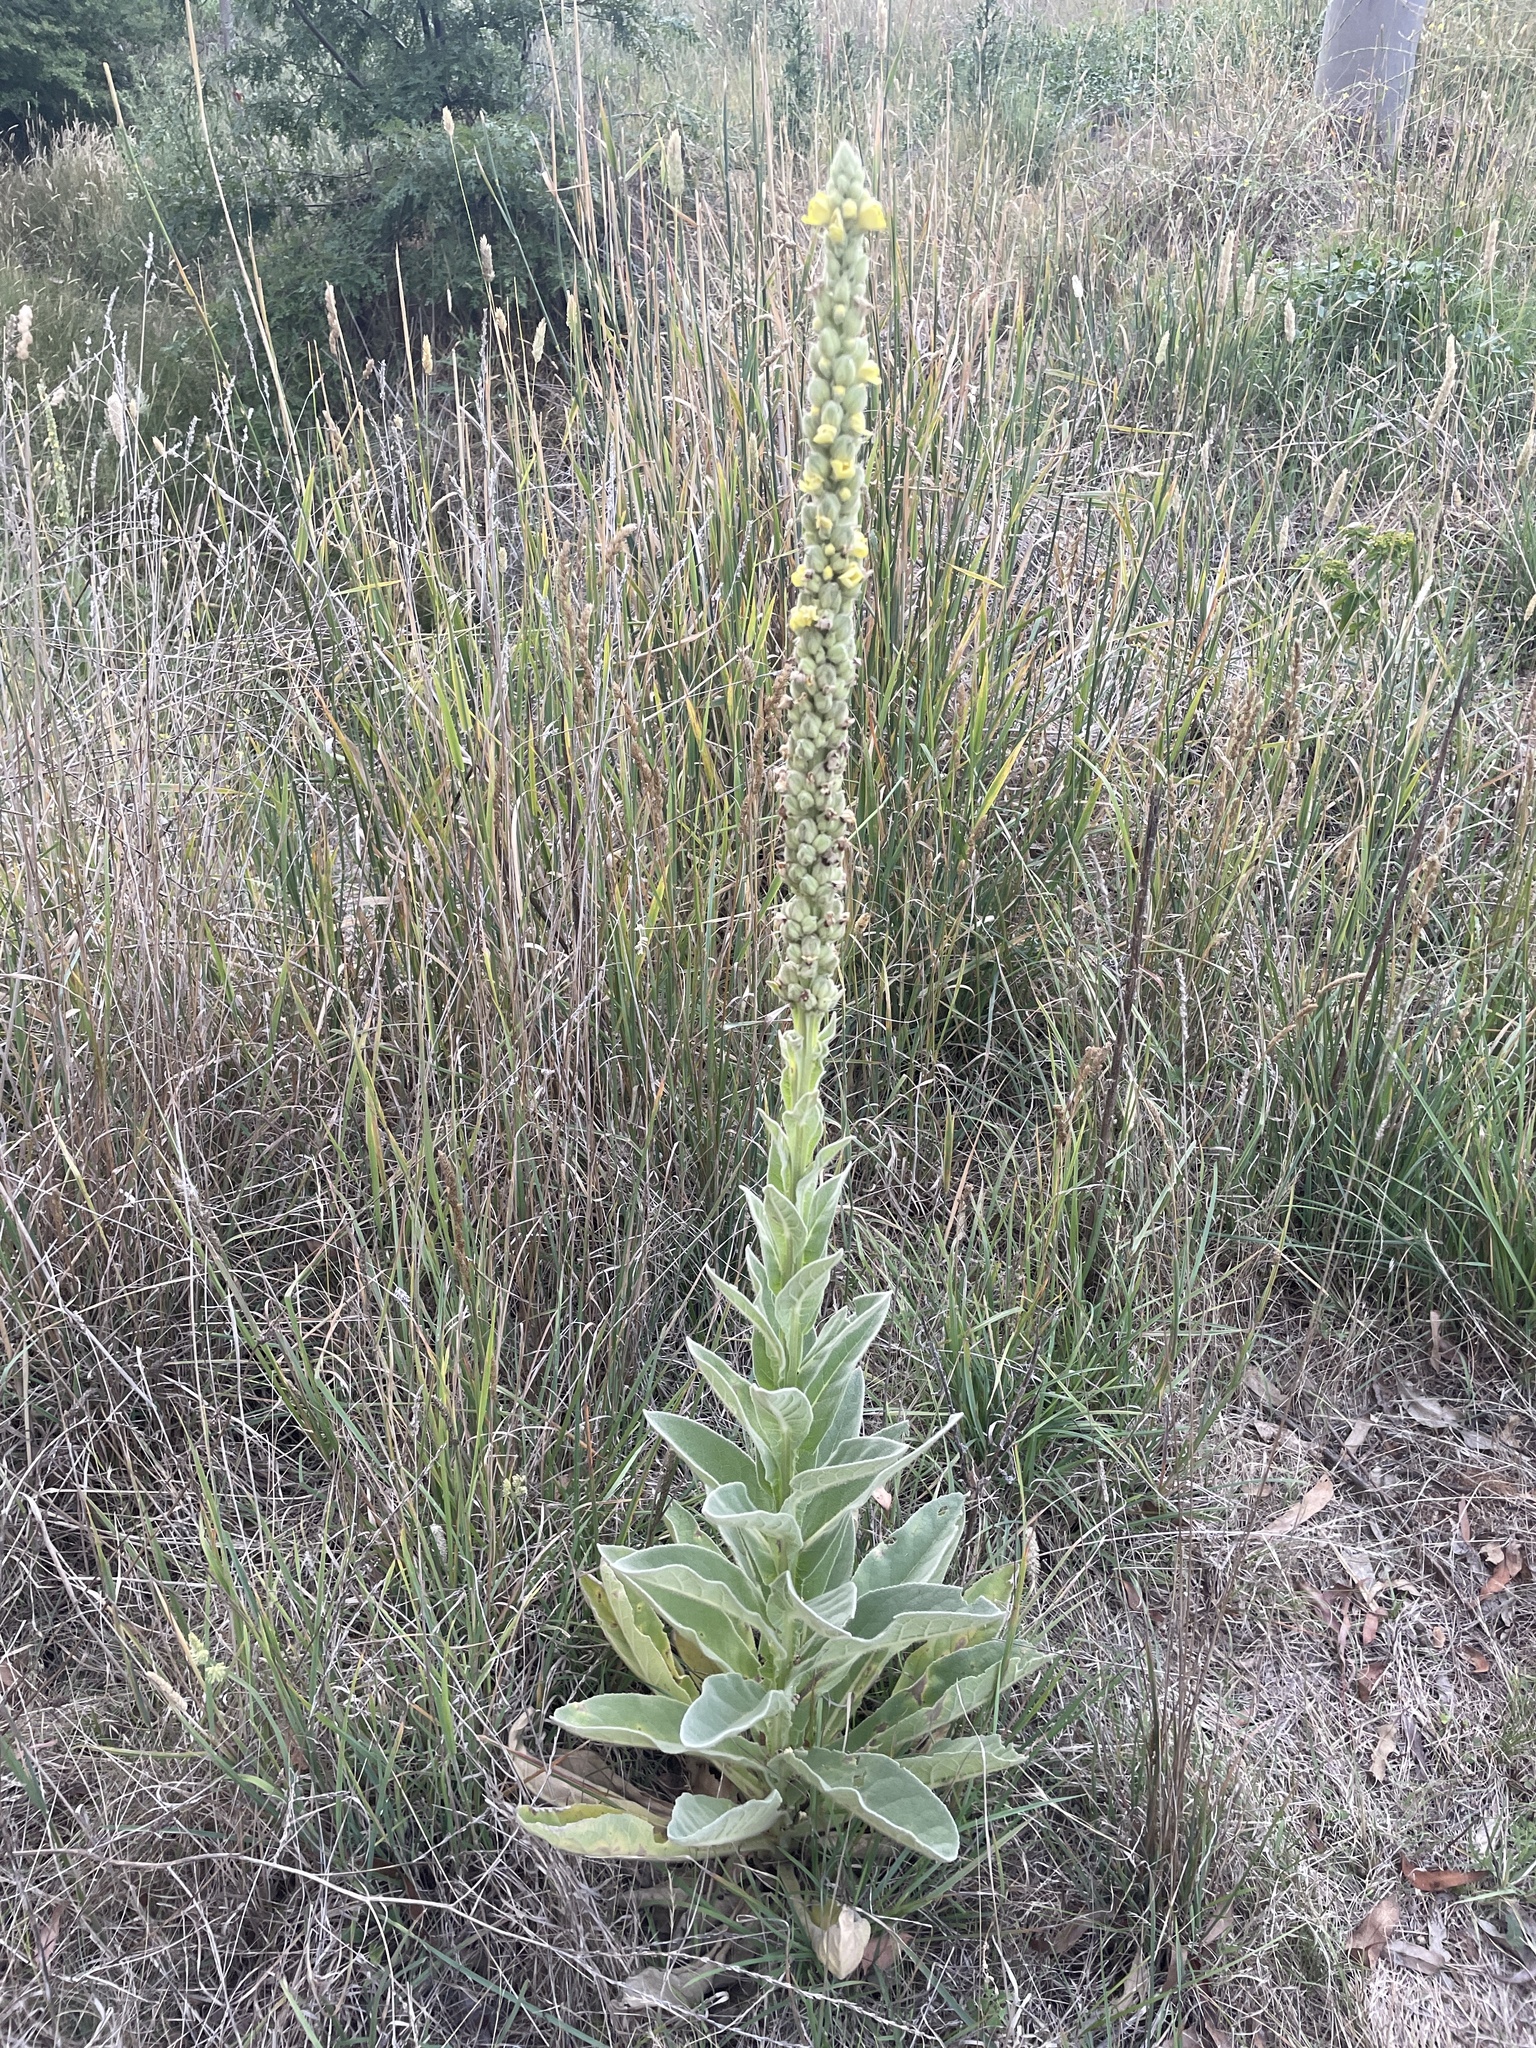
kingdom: Plantae
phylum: Tracheophyta
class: Magnoliopsida
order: Lamiales
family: Scrophulariaceae
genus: Verbascum
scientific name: Verbascum thapsus
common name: Common mullein
